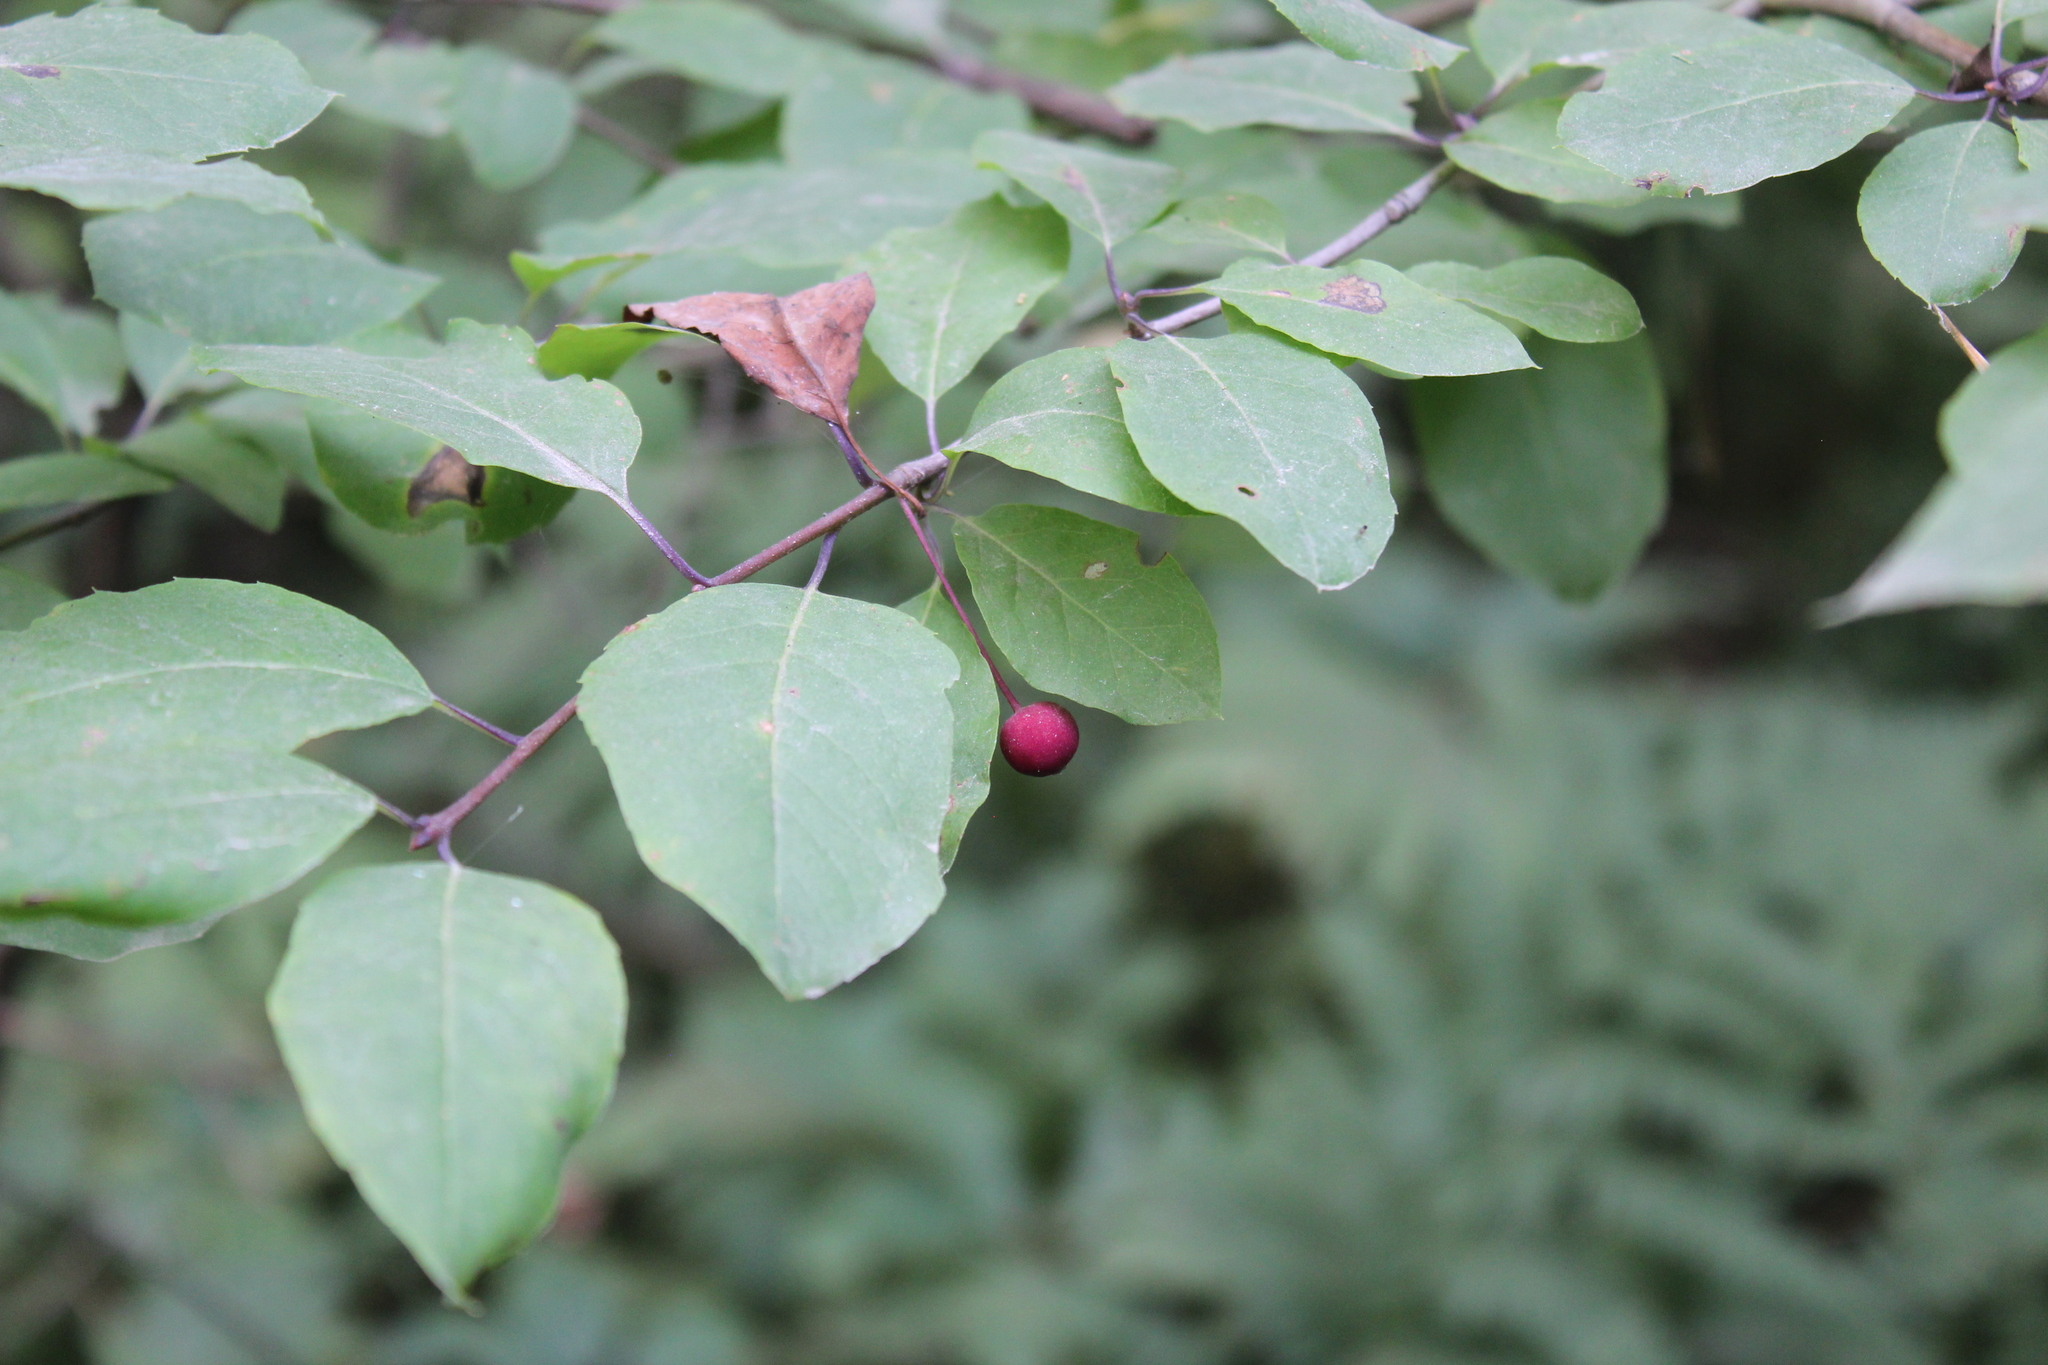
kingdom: Plantae
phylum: Tracheophyta
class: Magnoliopsida
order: Aquifoliales
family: Aquifoliaceae
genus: Ilex
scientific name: Ilex mucronata
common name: Catberry
